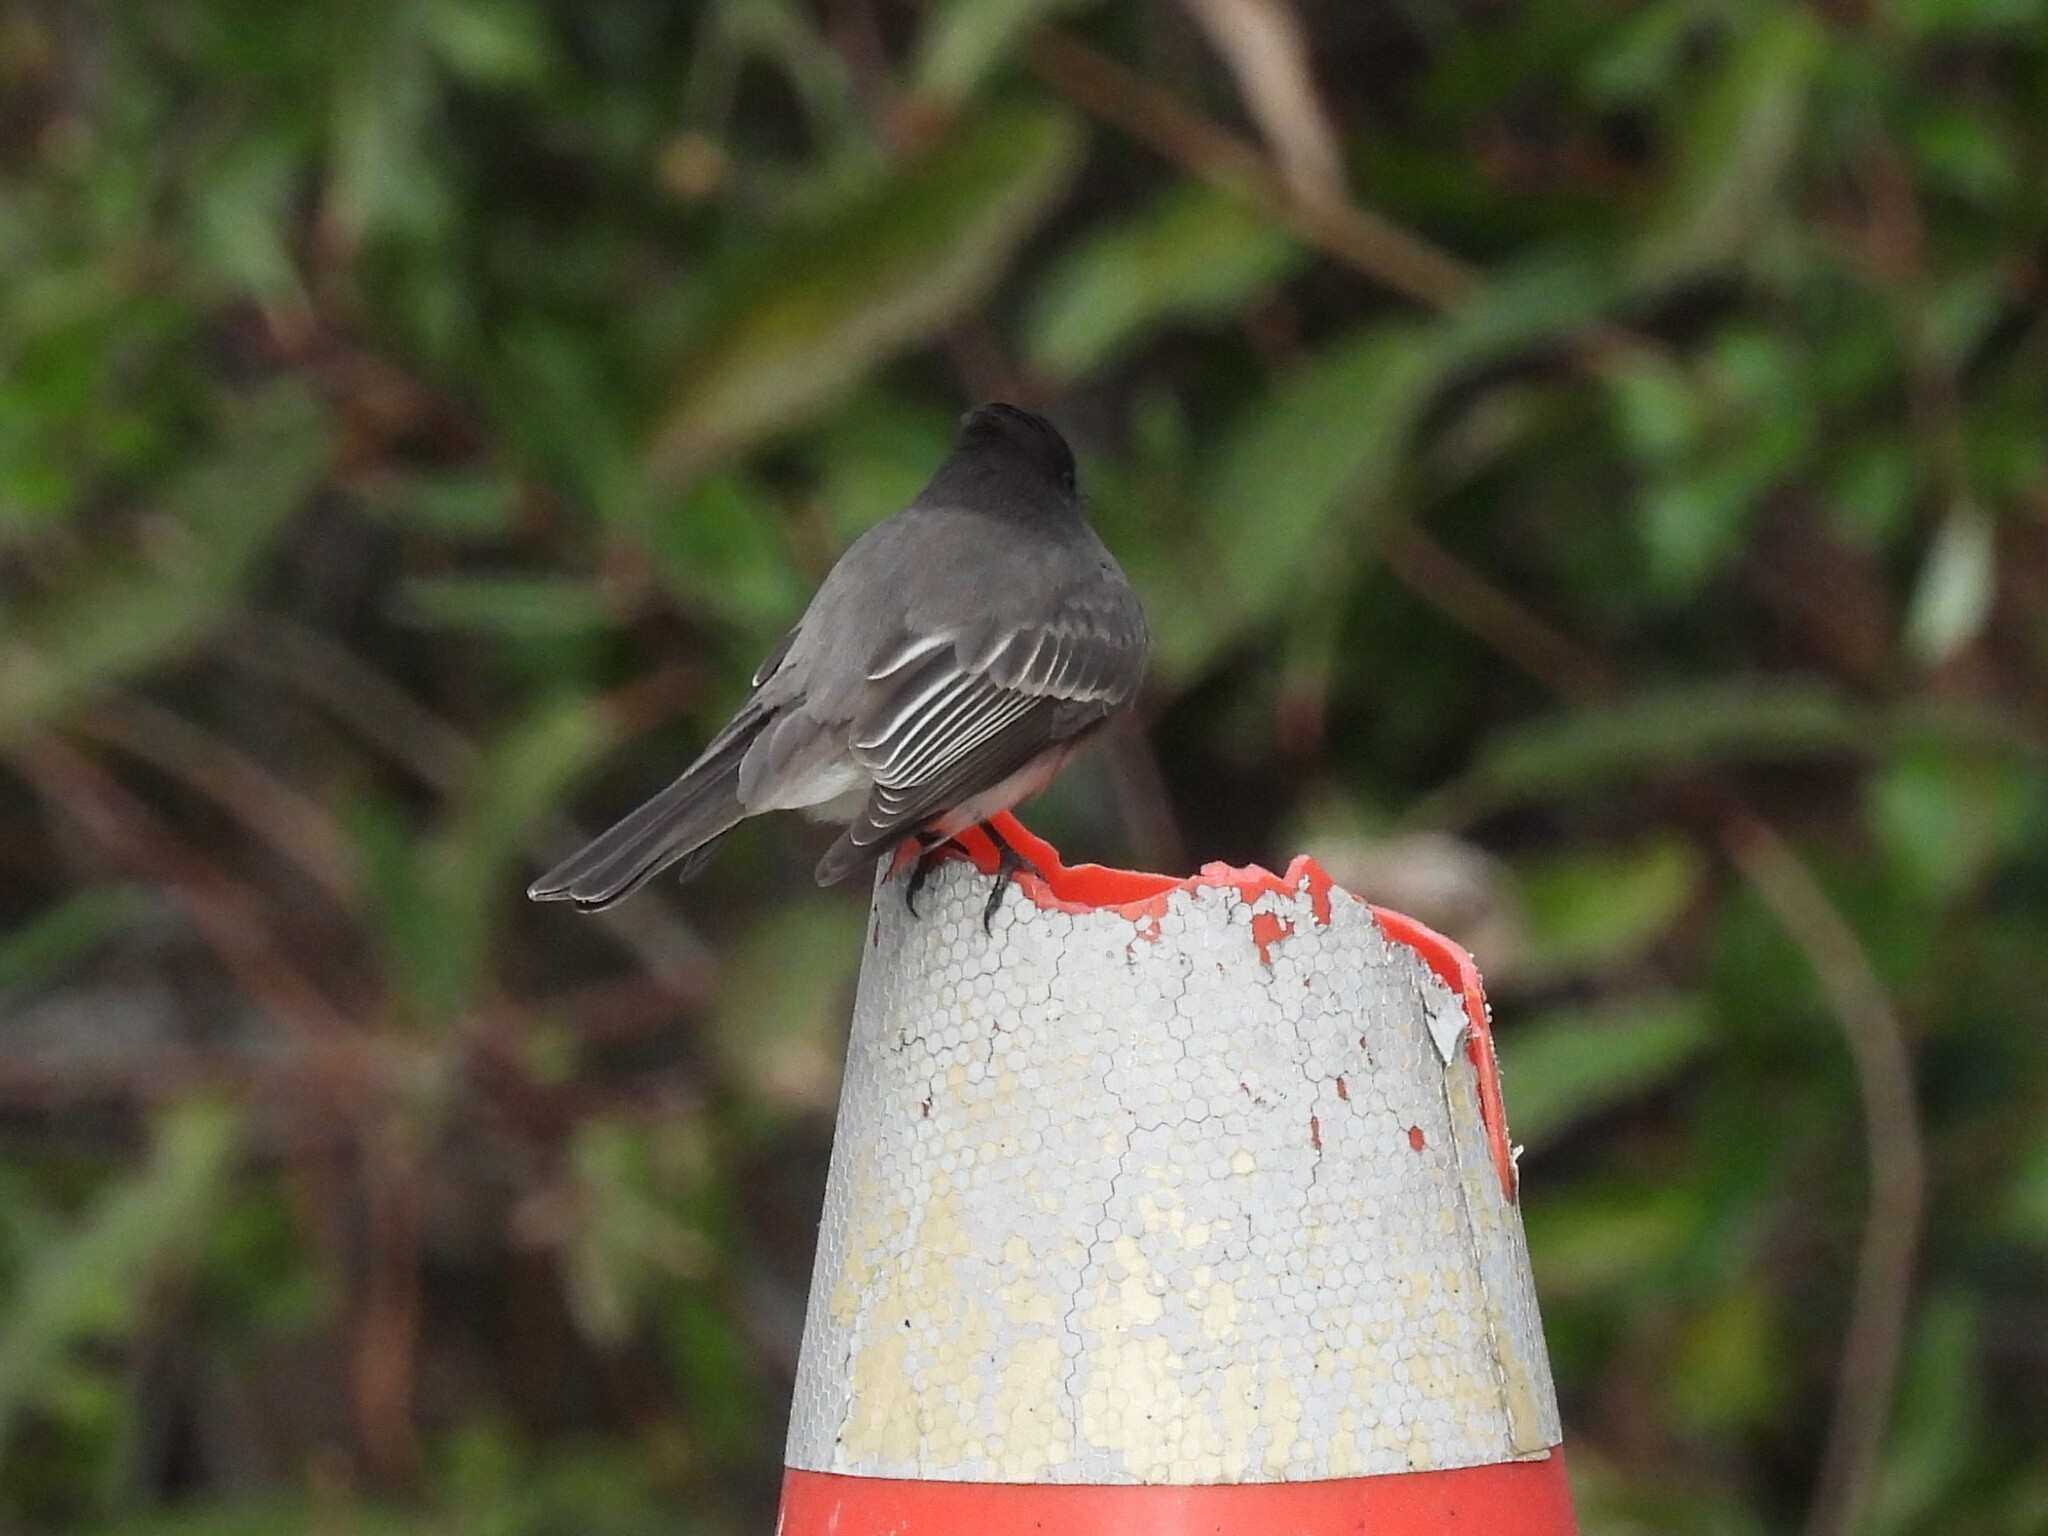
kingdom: Animalia
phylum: Chordata
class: Aves
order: Passeriformes
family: Tyrannidae
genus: Sayornis
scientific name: Sayornis nigricans
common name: Black phoebe
